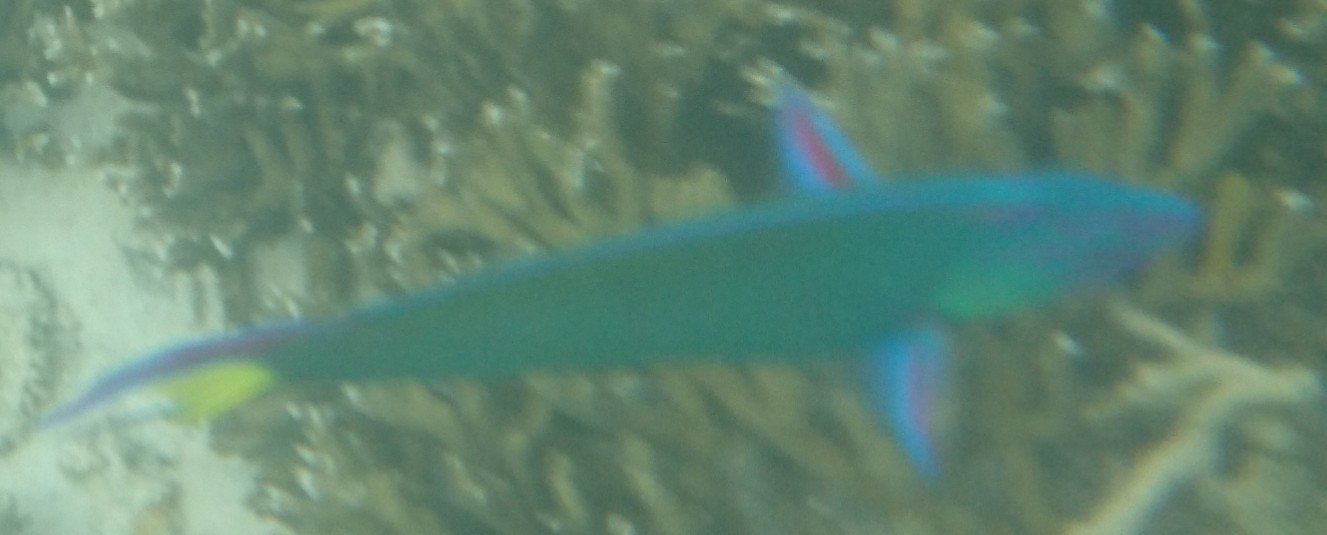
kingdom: Animalia
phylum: Chordata
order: Perciformes
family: Labridae
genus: Thalassoma
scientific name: Thalassoma lunare
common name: Blue wrasse
